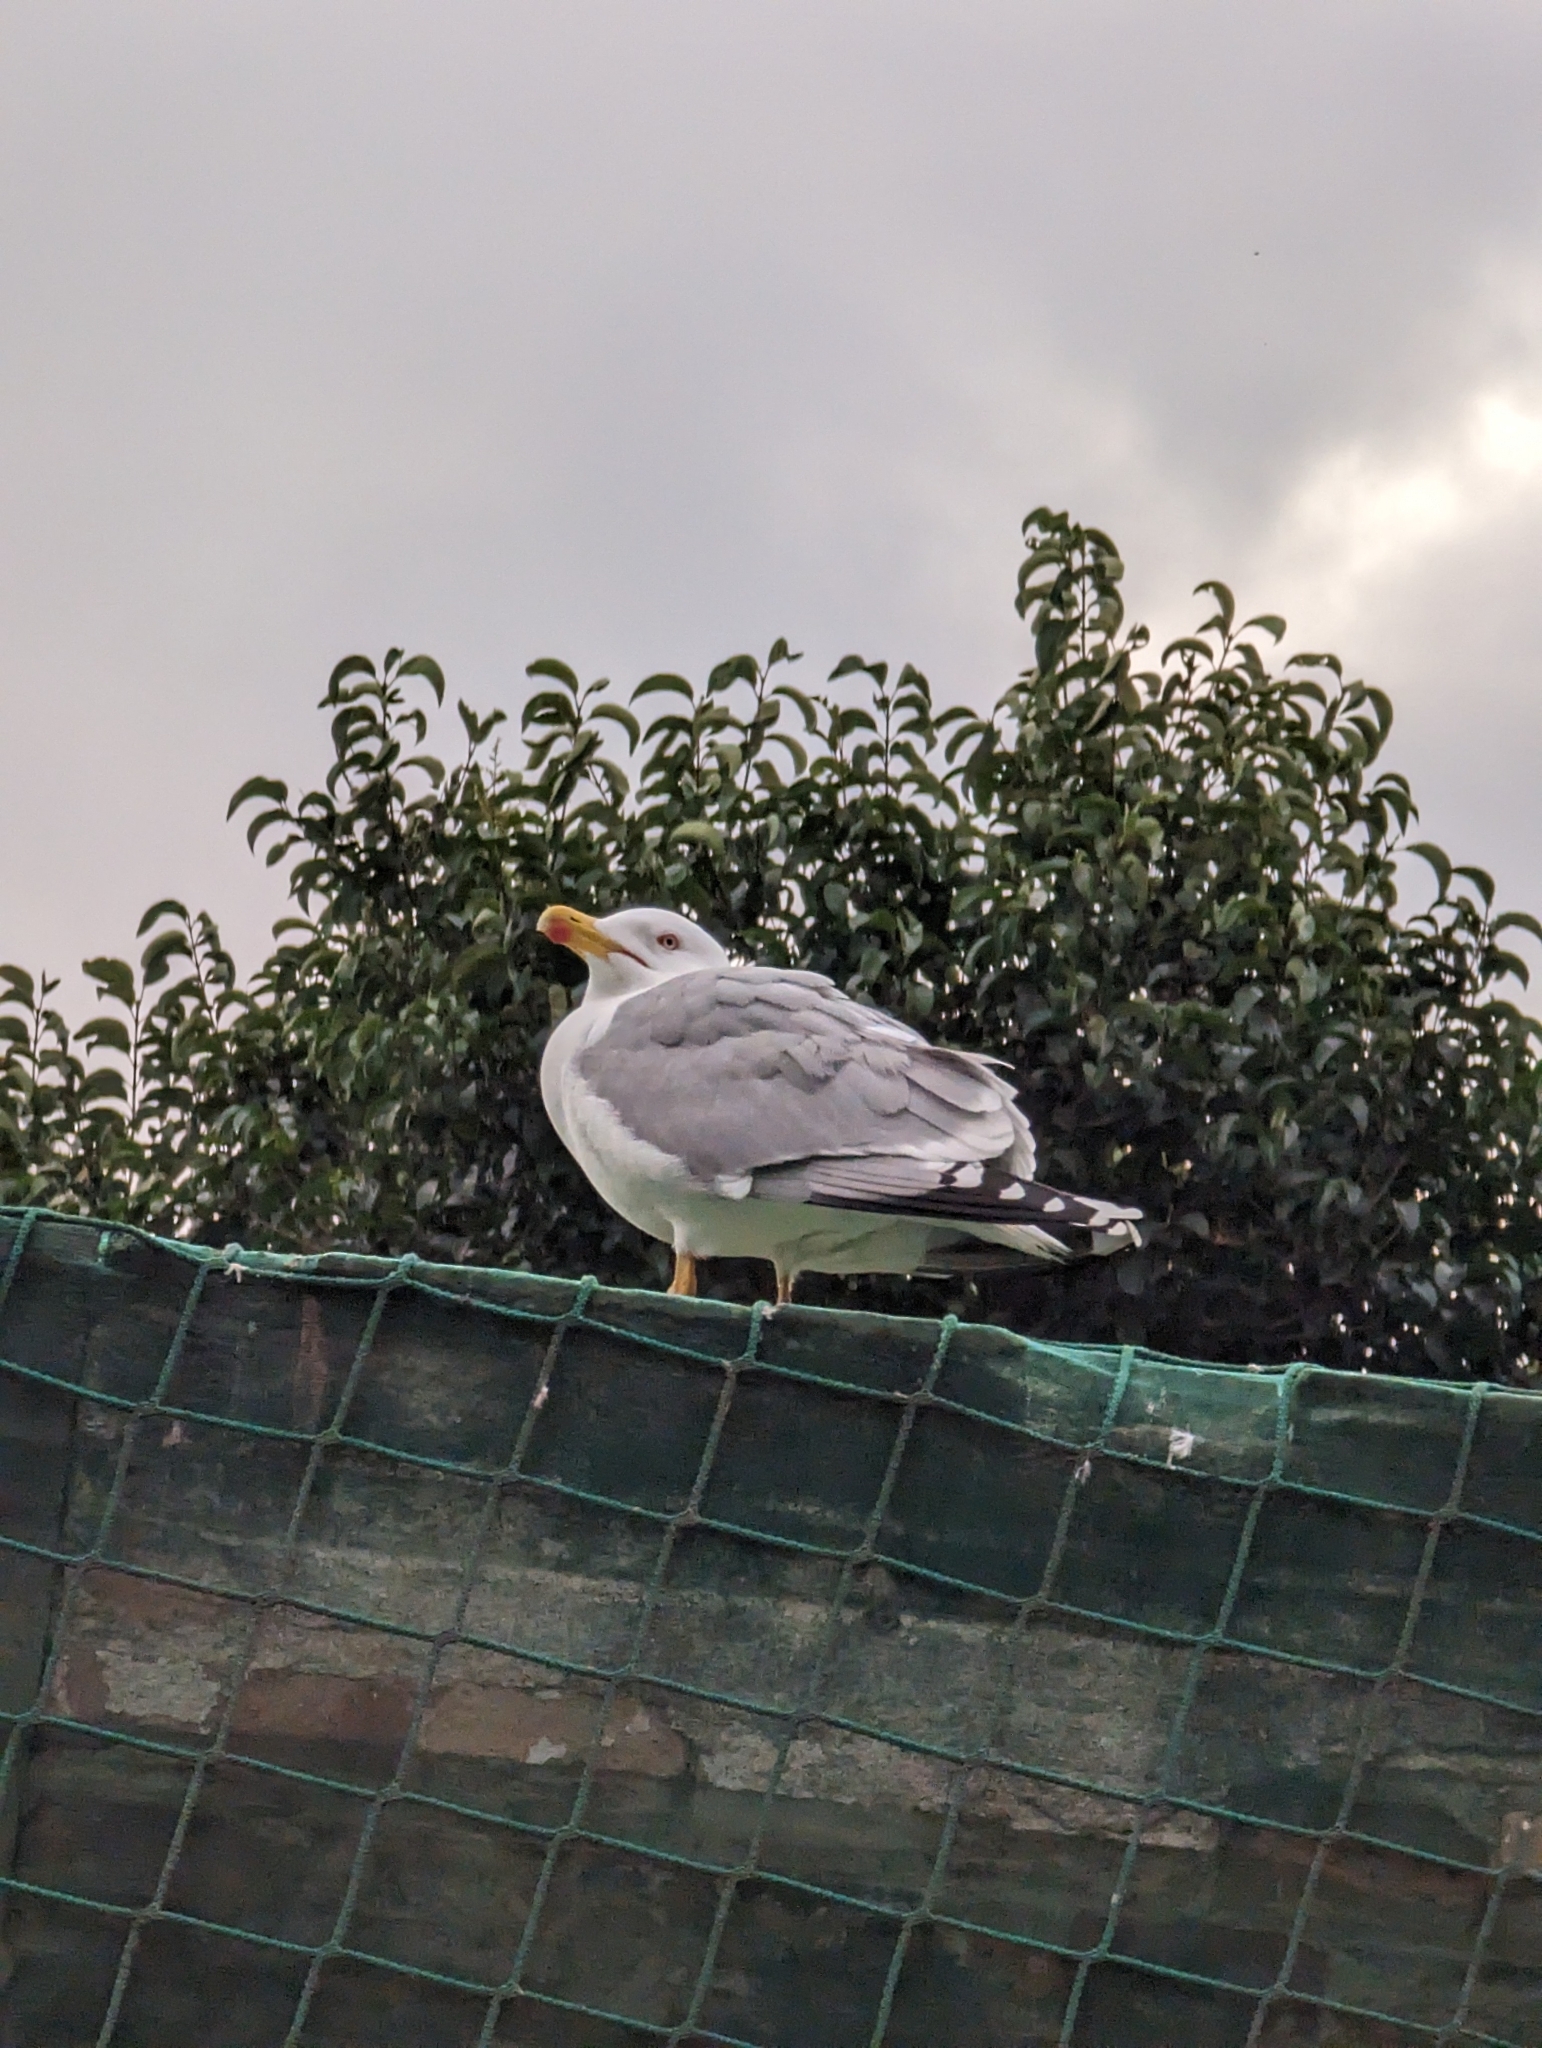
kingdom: Animalia
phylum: Chordata
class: Aves
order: Charadriiformes
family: Laridae
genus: Larus
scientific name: Larus michahellis
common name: Yellow-legged gull
